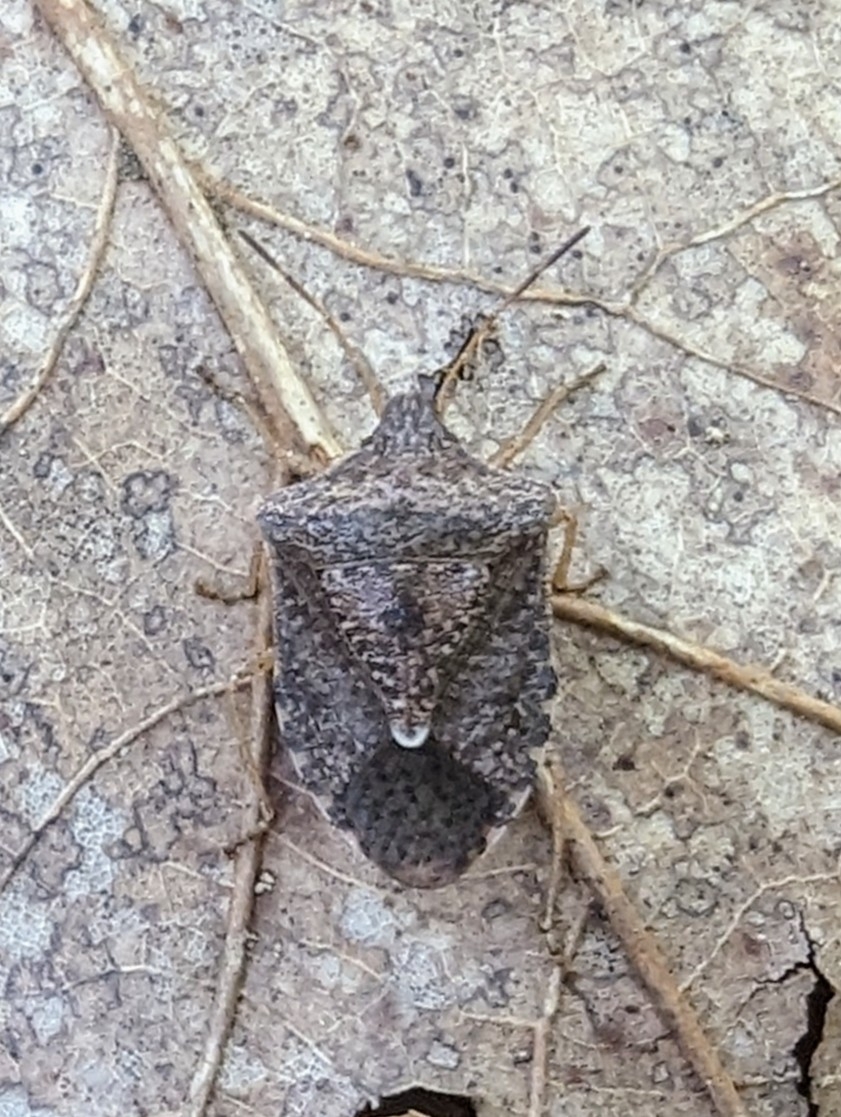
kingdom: Animalia
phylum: Arthropoda
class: Insecta
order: Hemiptera
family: Pentatomidae
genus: Euschistus
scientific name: Euschistus servus
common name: Brown stink bug
